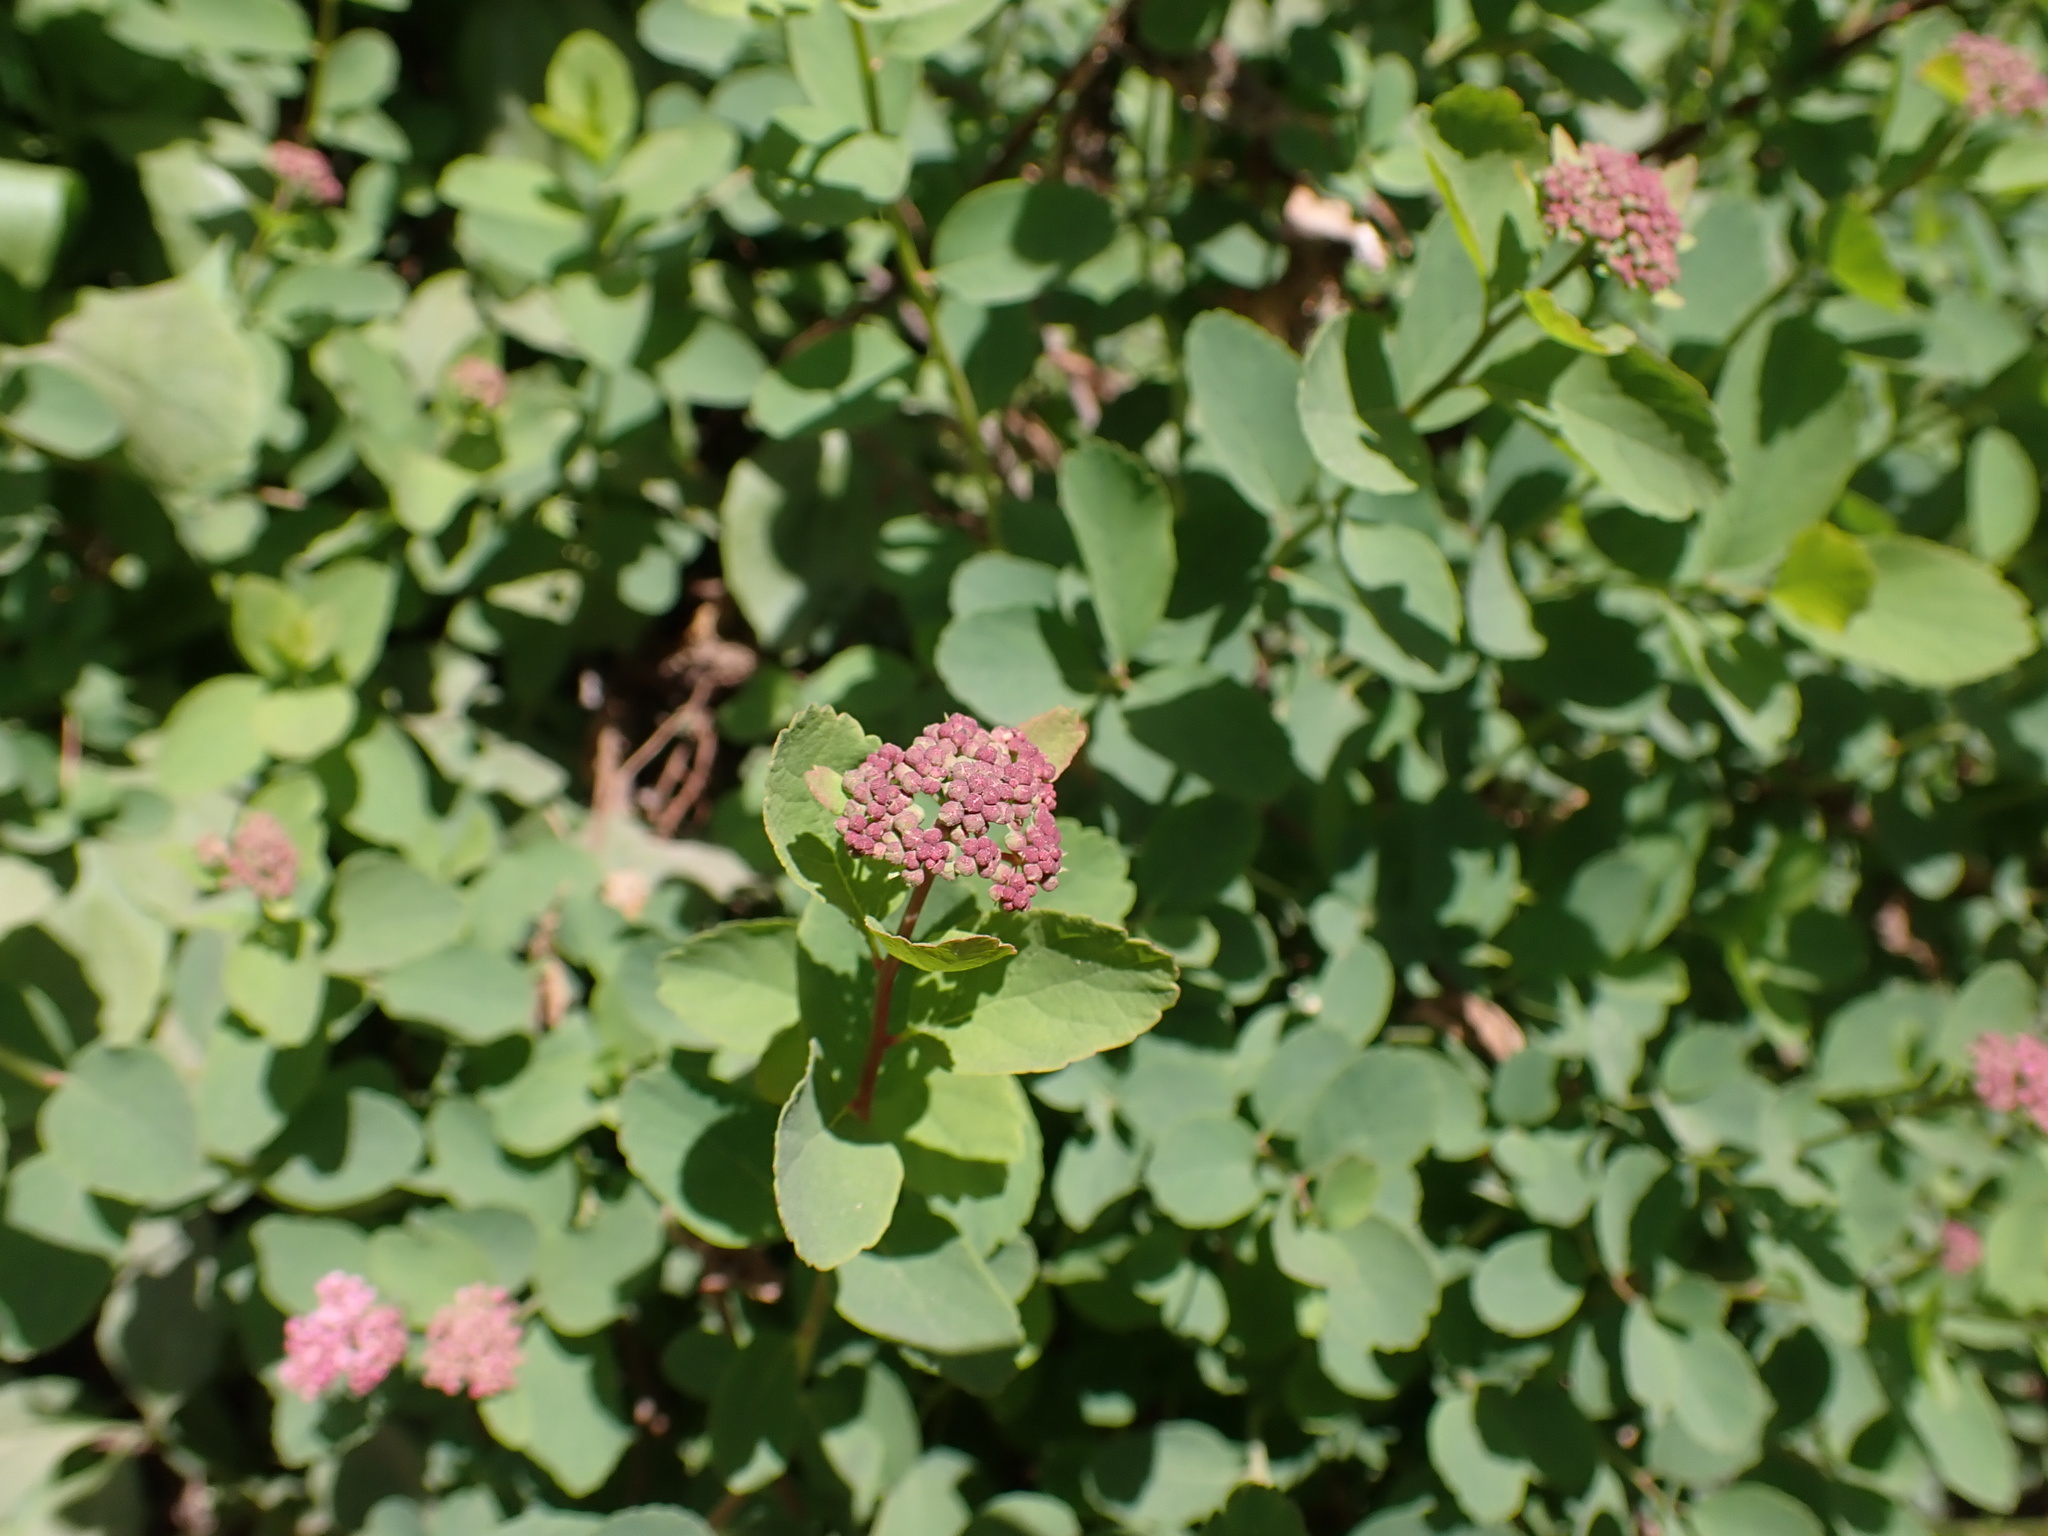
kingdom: Plantae
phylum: Tracheophyta
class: Magnoliopsida
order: Rosales
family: Rosaceae
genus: Spiraea
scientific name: Spiraea splendens
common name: Subalpine meadowsweet
